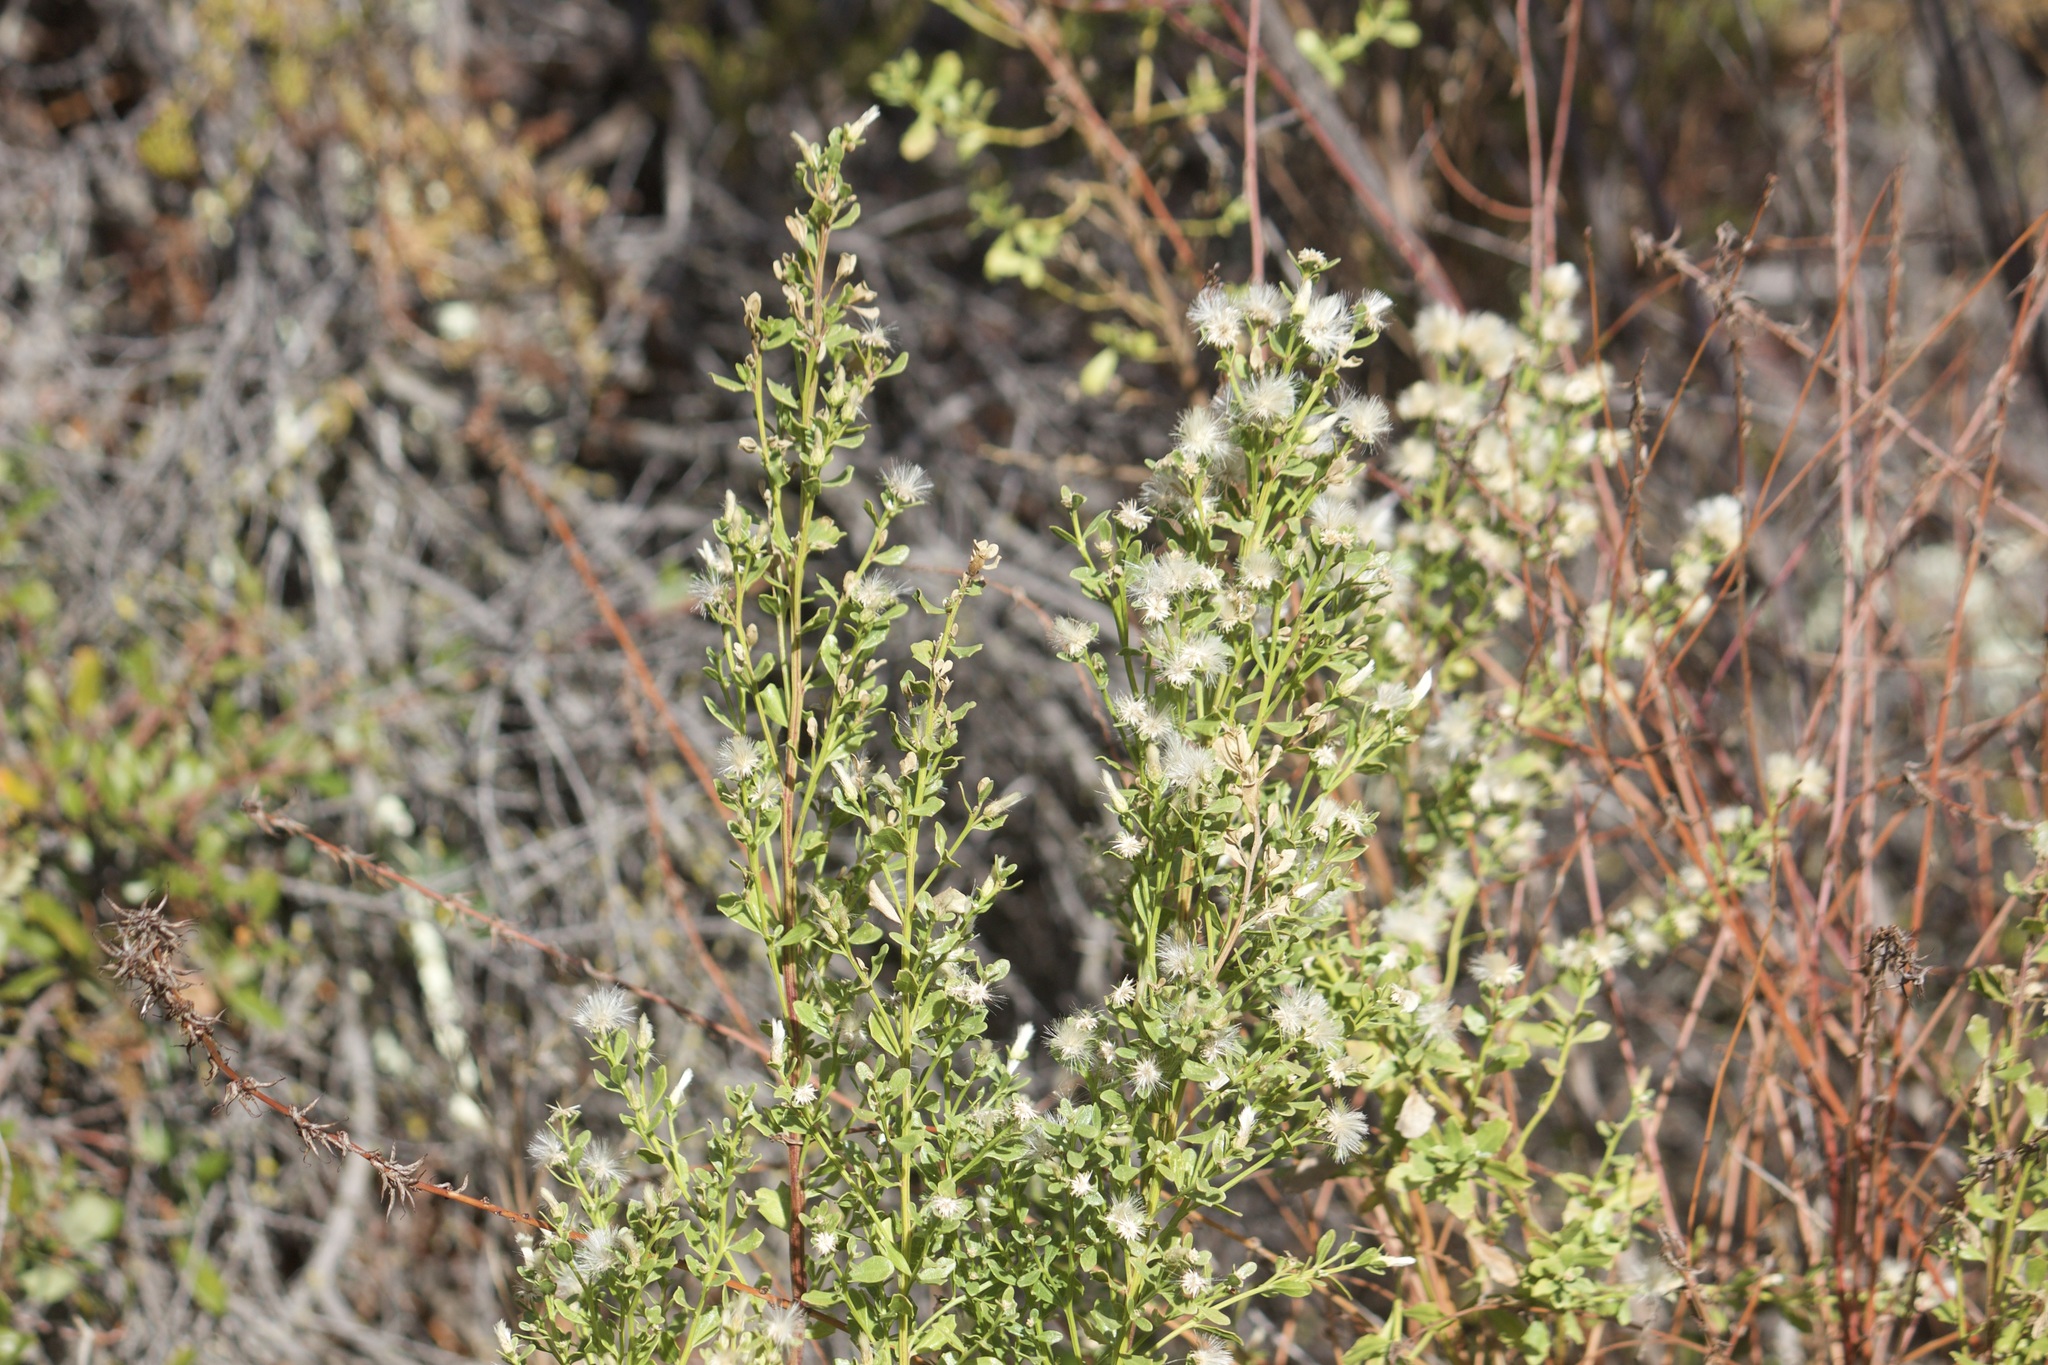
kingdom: Plantae
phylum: Tracheophyta
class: Magnoliopsida
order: Asterales
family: Asteraceae
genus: Baccharis
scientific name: Baccharis pilularis
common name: Coyotebrush
